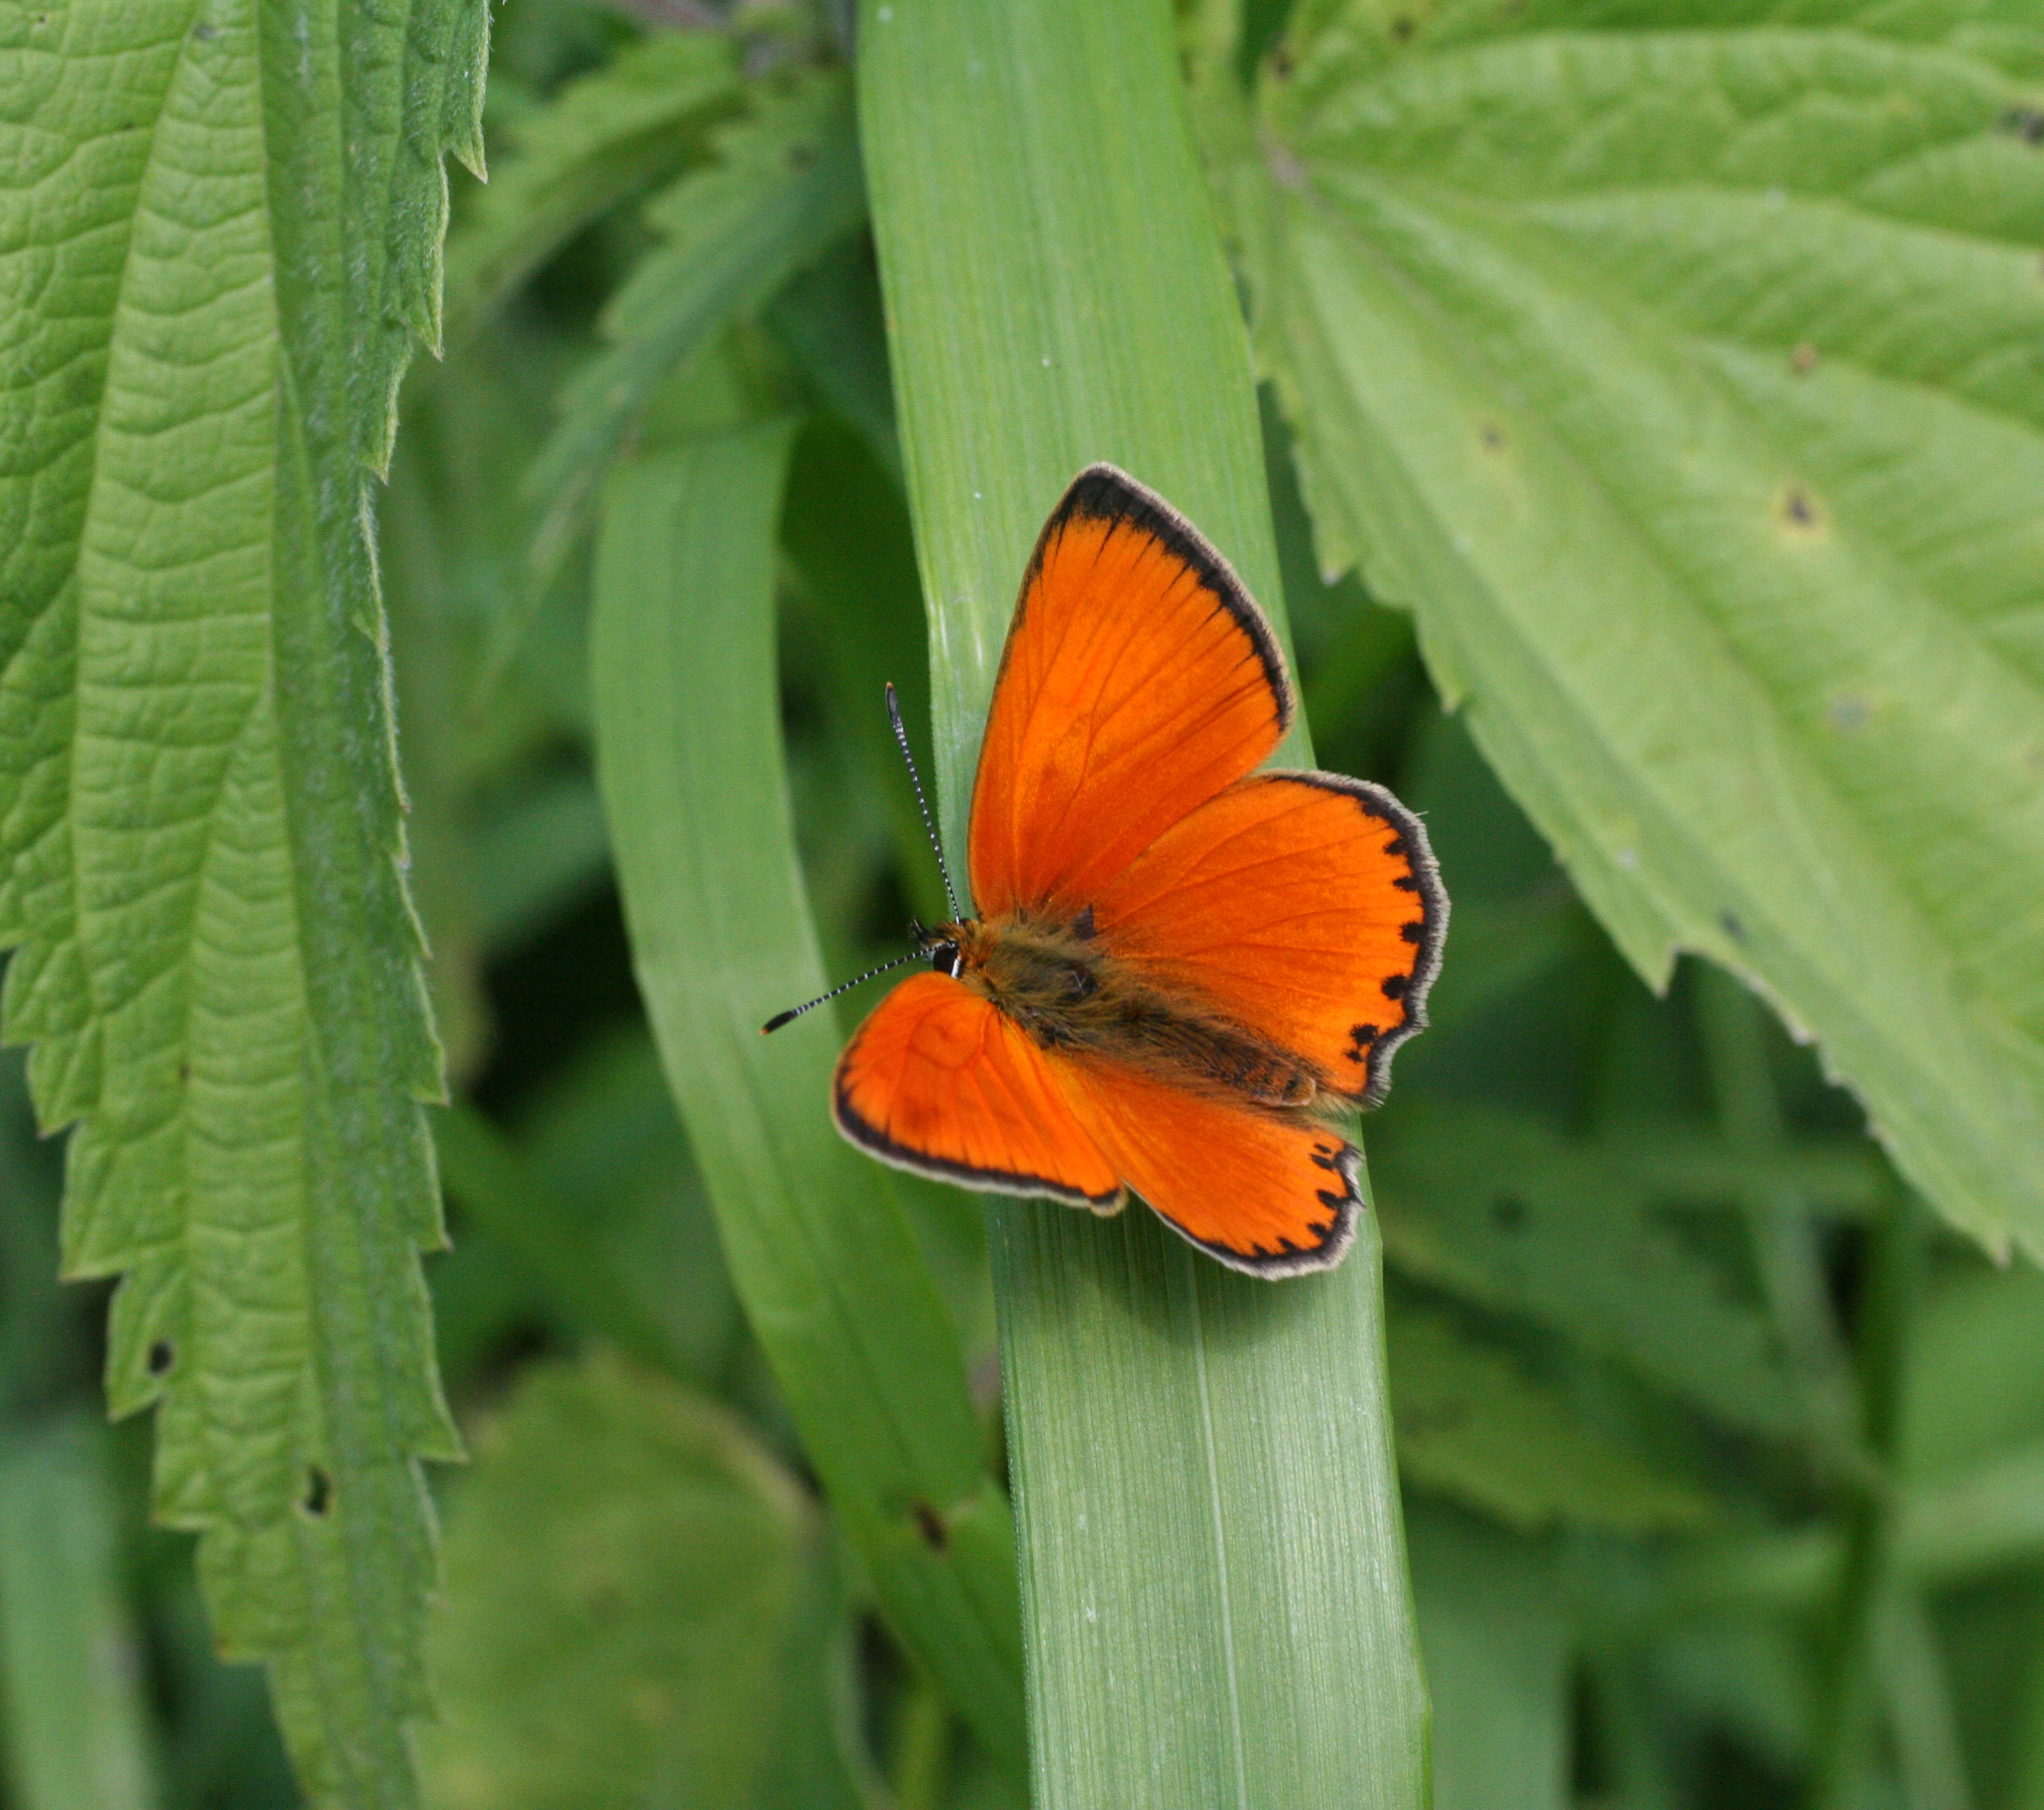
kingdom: Animalia
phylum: Arthropoda
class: Insecta
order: Lepidoptera
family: Lycaenidae
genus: Lycaena
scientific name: Lycaena virgaureae
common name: Scarce copper
